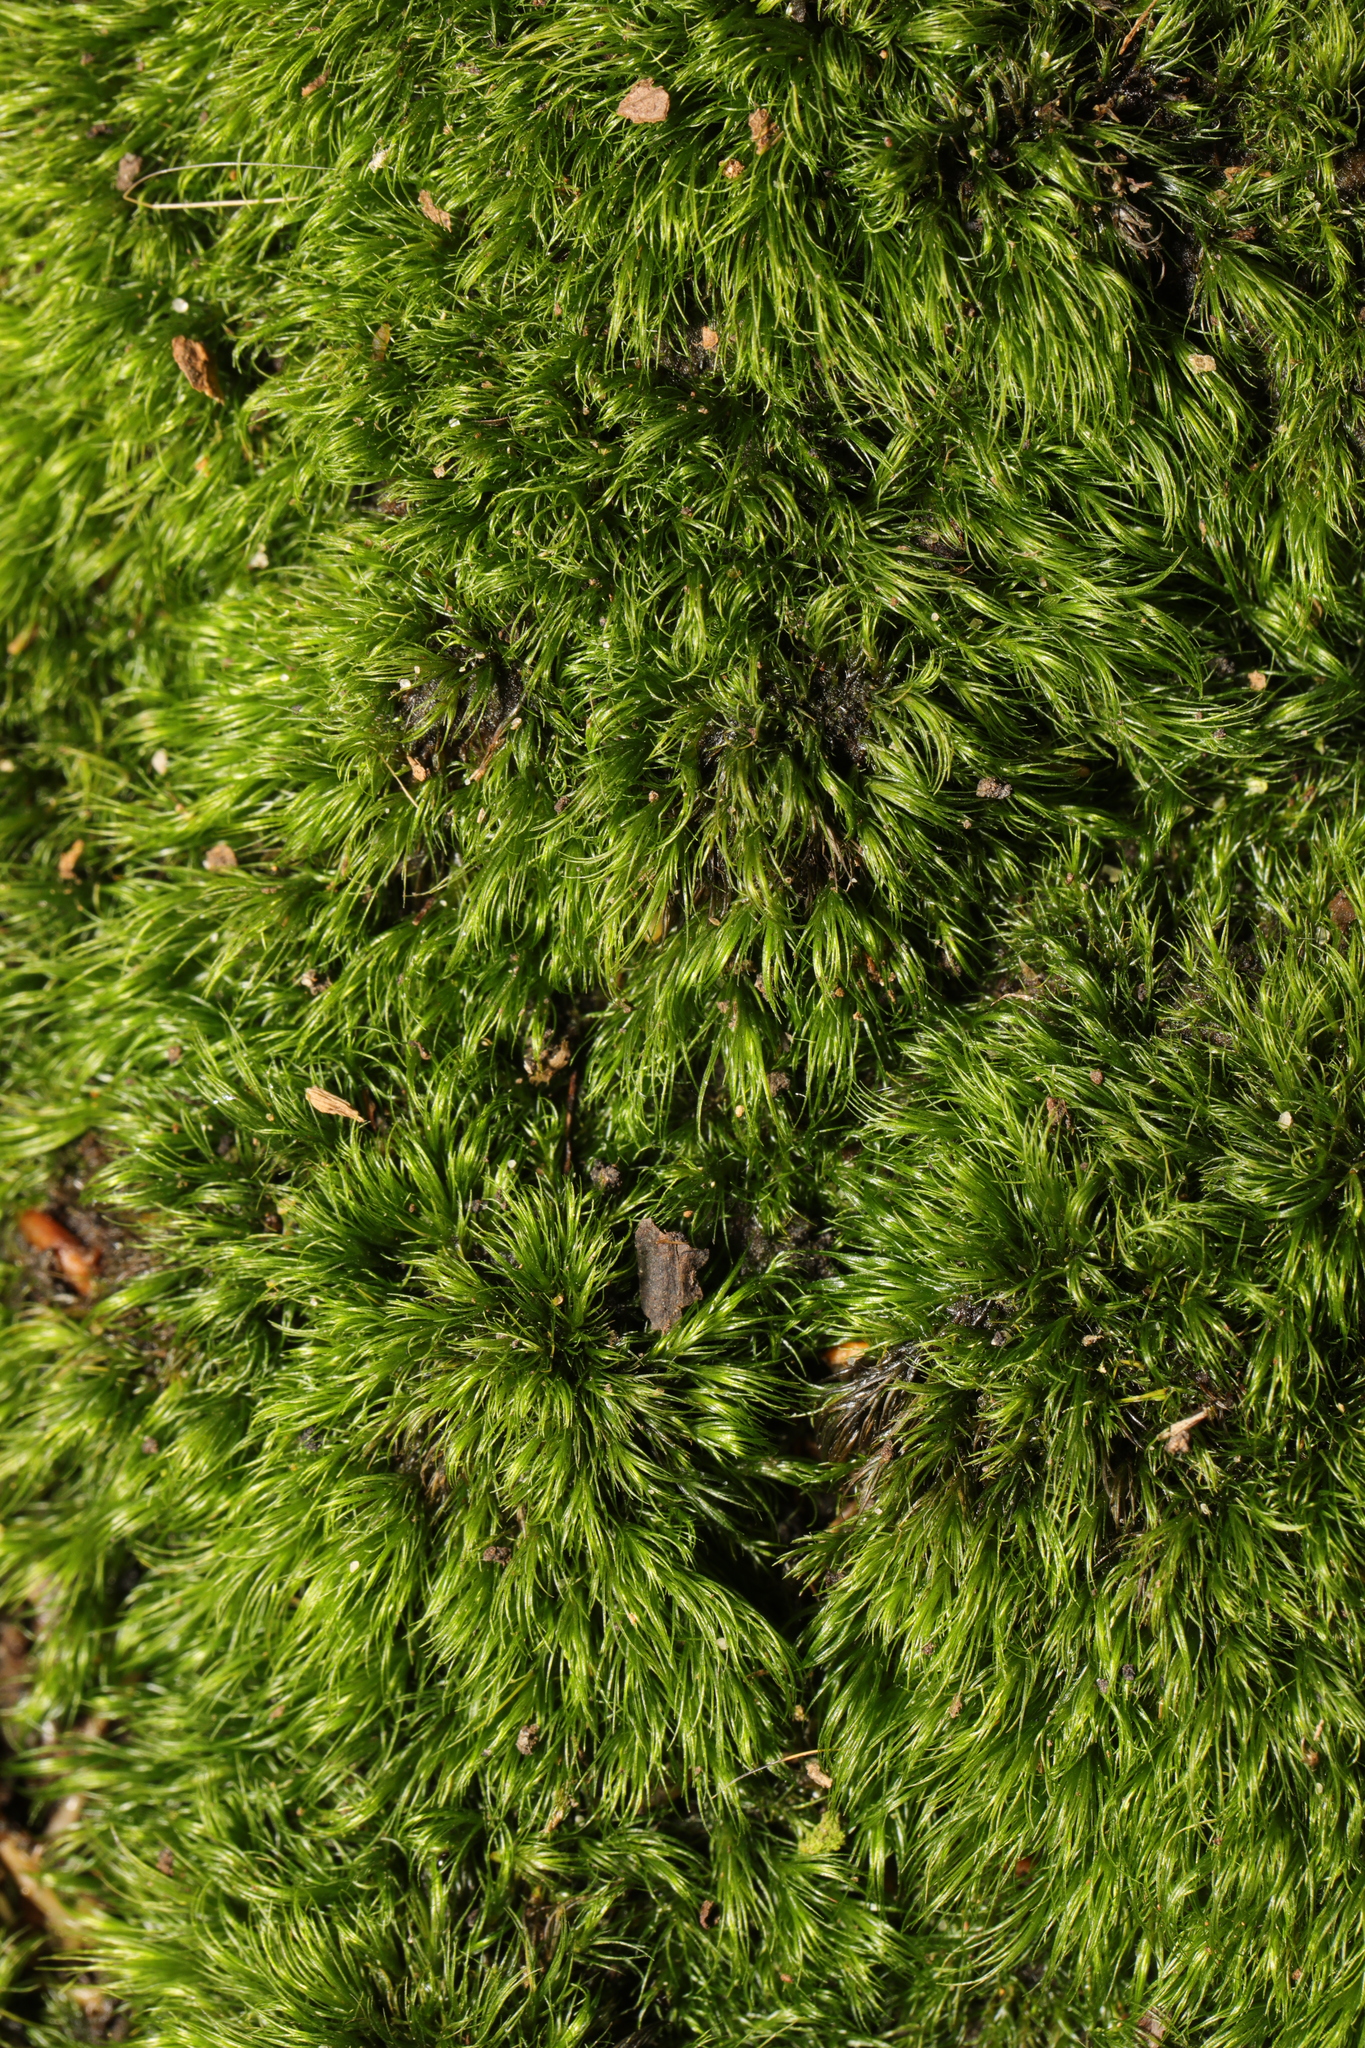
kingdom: Plantae
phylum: Bryophyta
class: Bryopsida
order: Dicranales
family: Dicranellaceae
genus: Dicranella
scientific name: Dicranella heteromalla
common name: Silky forklet moss
